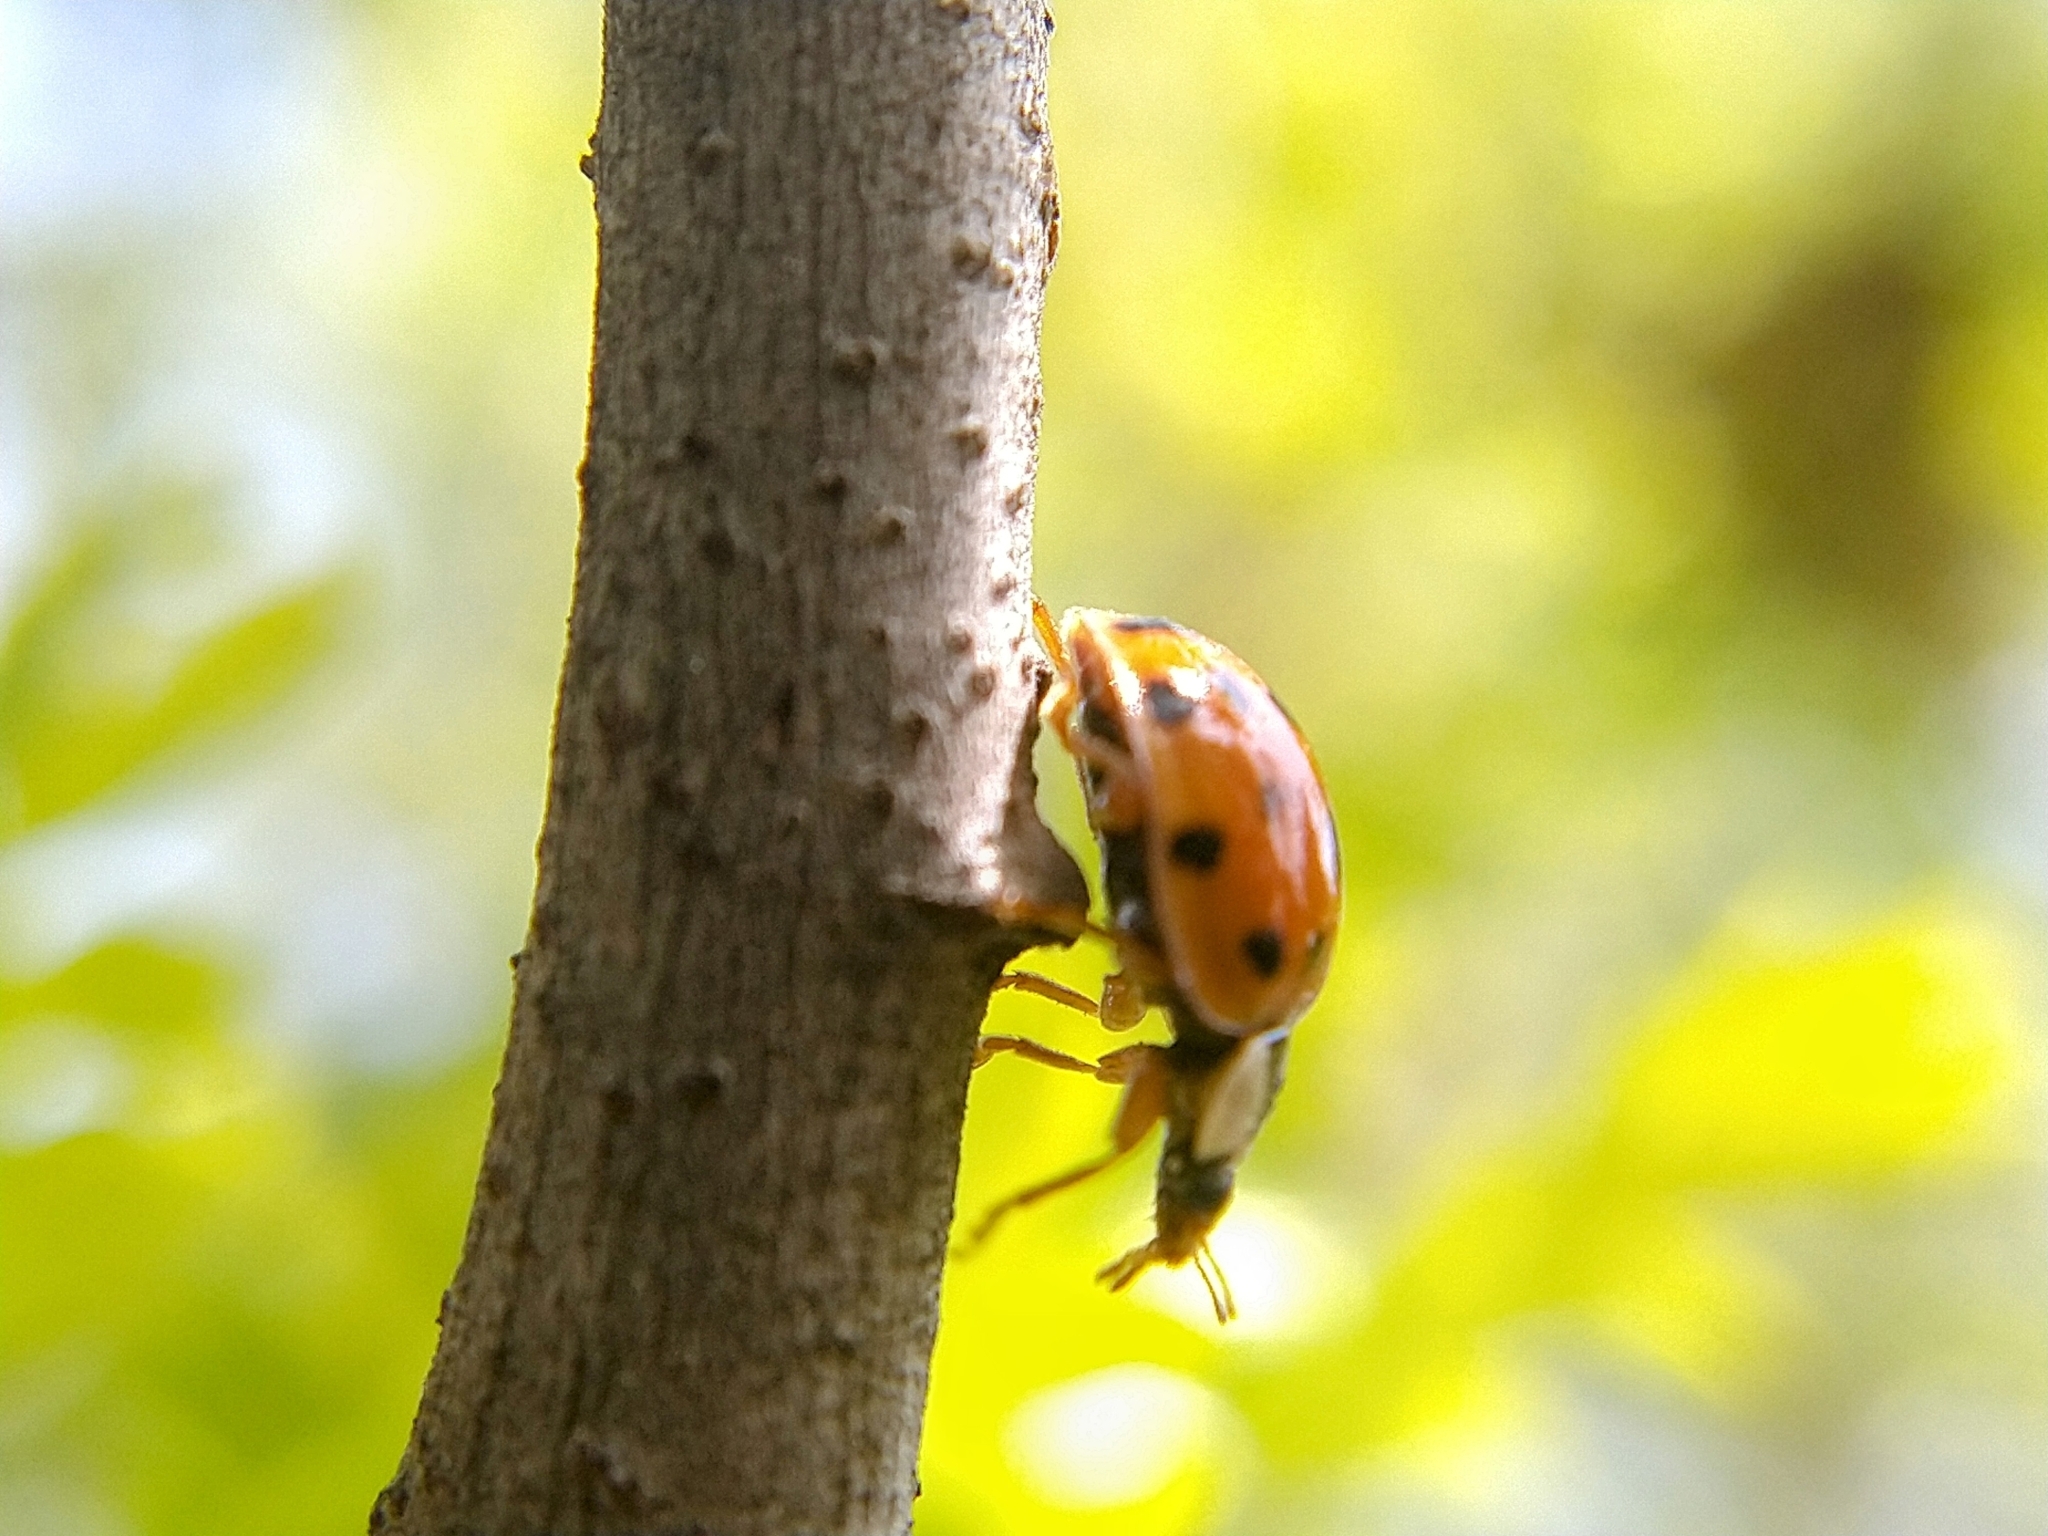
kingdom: Animalia
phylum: Arthropoda
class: Insecta
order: Coleoptera
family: Coccinellidae
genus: Harmonia
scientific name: Harmonia axyridis
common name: Harlequin ladybird
